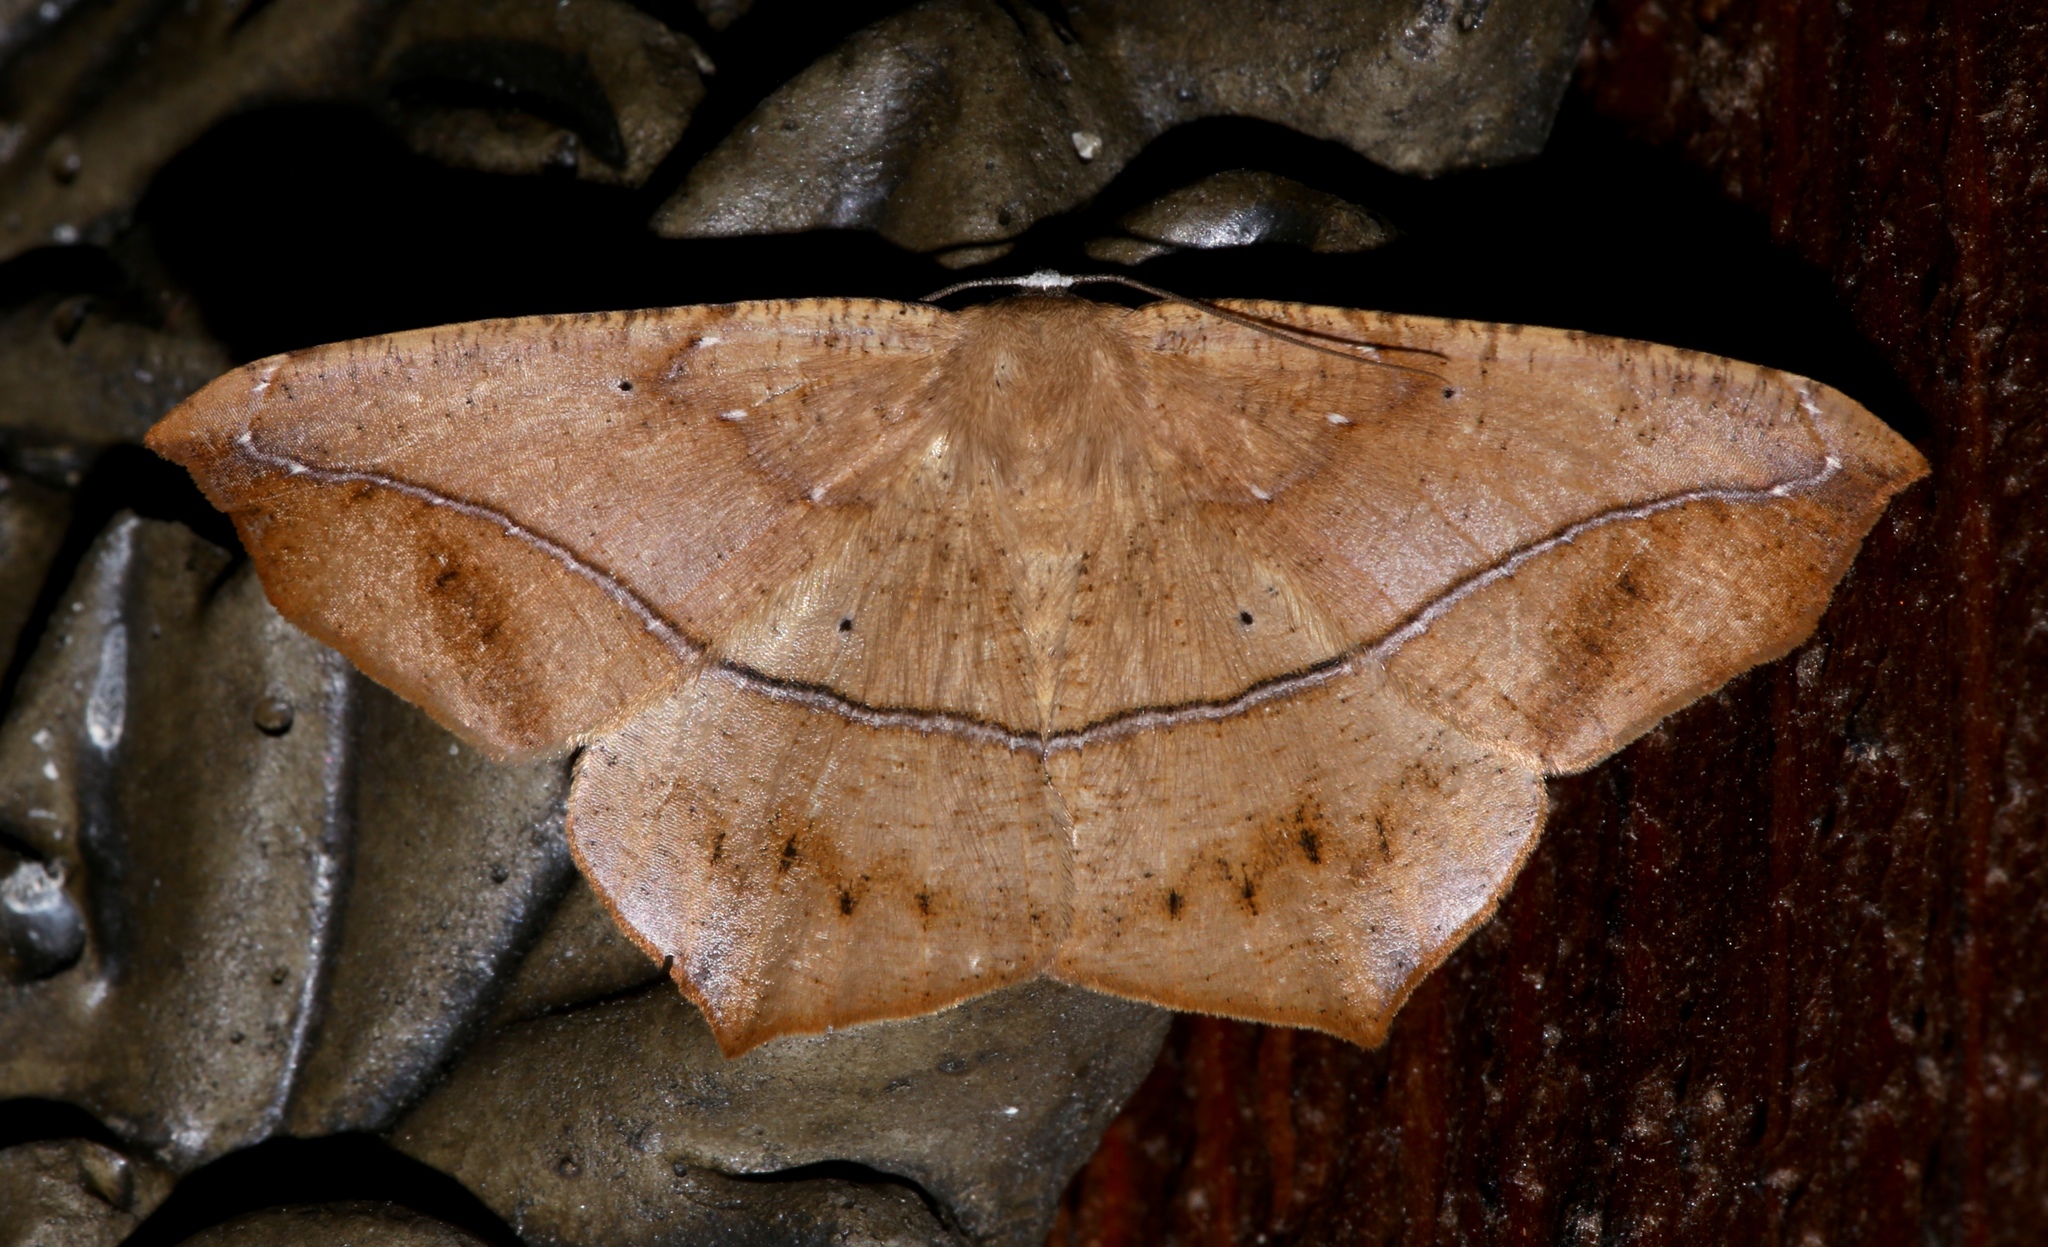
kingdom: Animalia
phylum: Arthropoda
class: Insecta
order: Lepidoptera
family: Geometridae
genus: Prochoerodes
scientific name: Prochoerodes lineola
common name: Large maple spanworm
